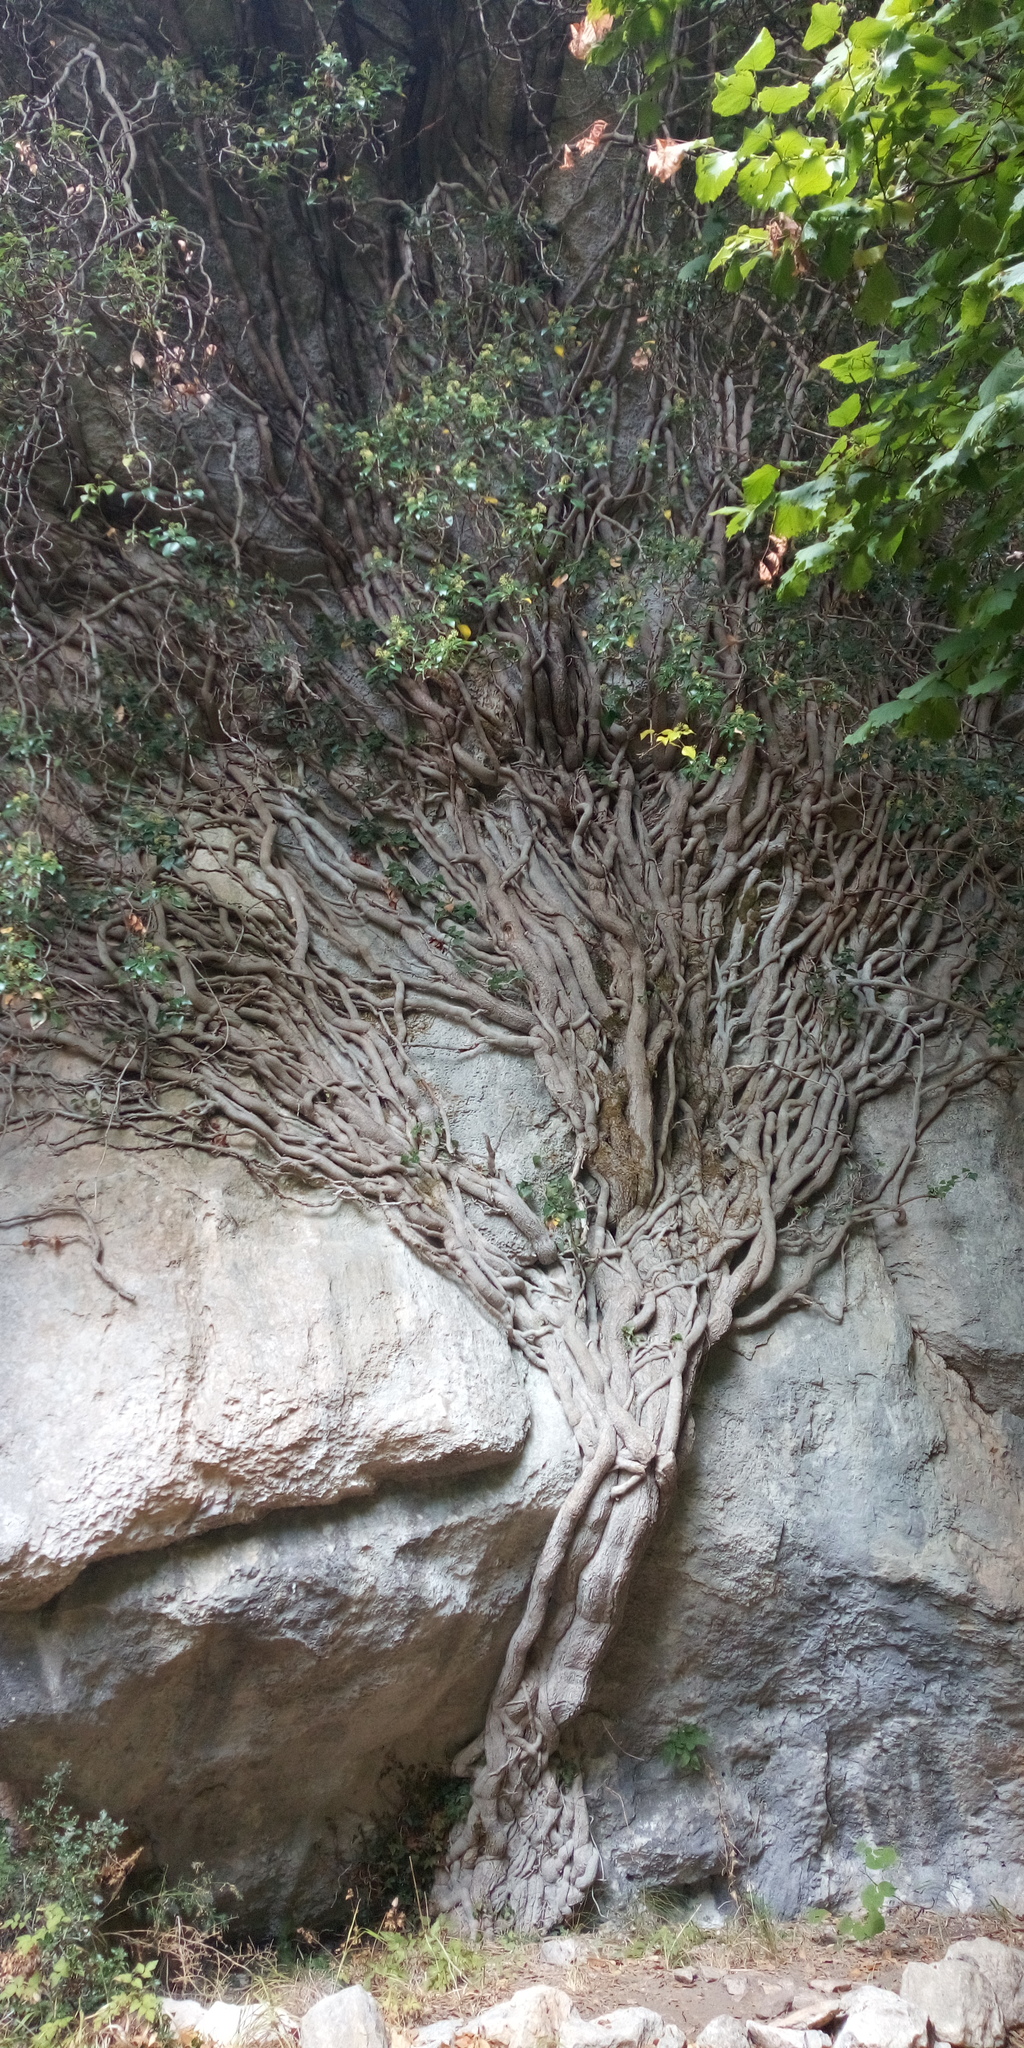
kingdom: Plantae
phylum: Tracheophyta
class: Magnoliopsida
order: Apiales
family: Araliaceae
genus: Hedera
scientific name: Hedera helix
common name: Ivy
